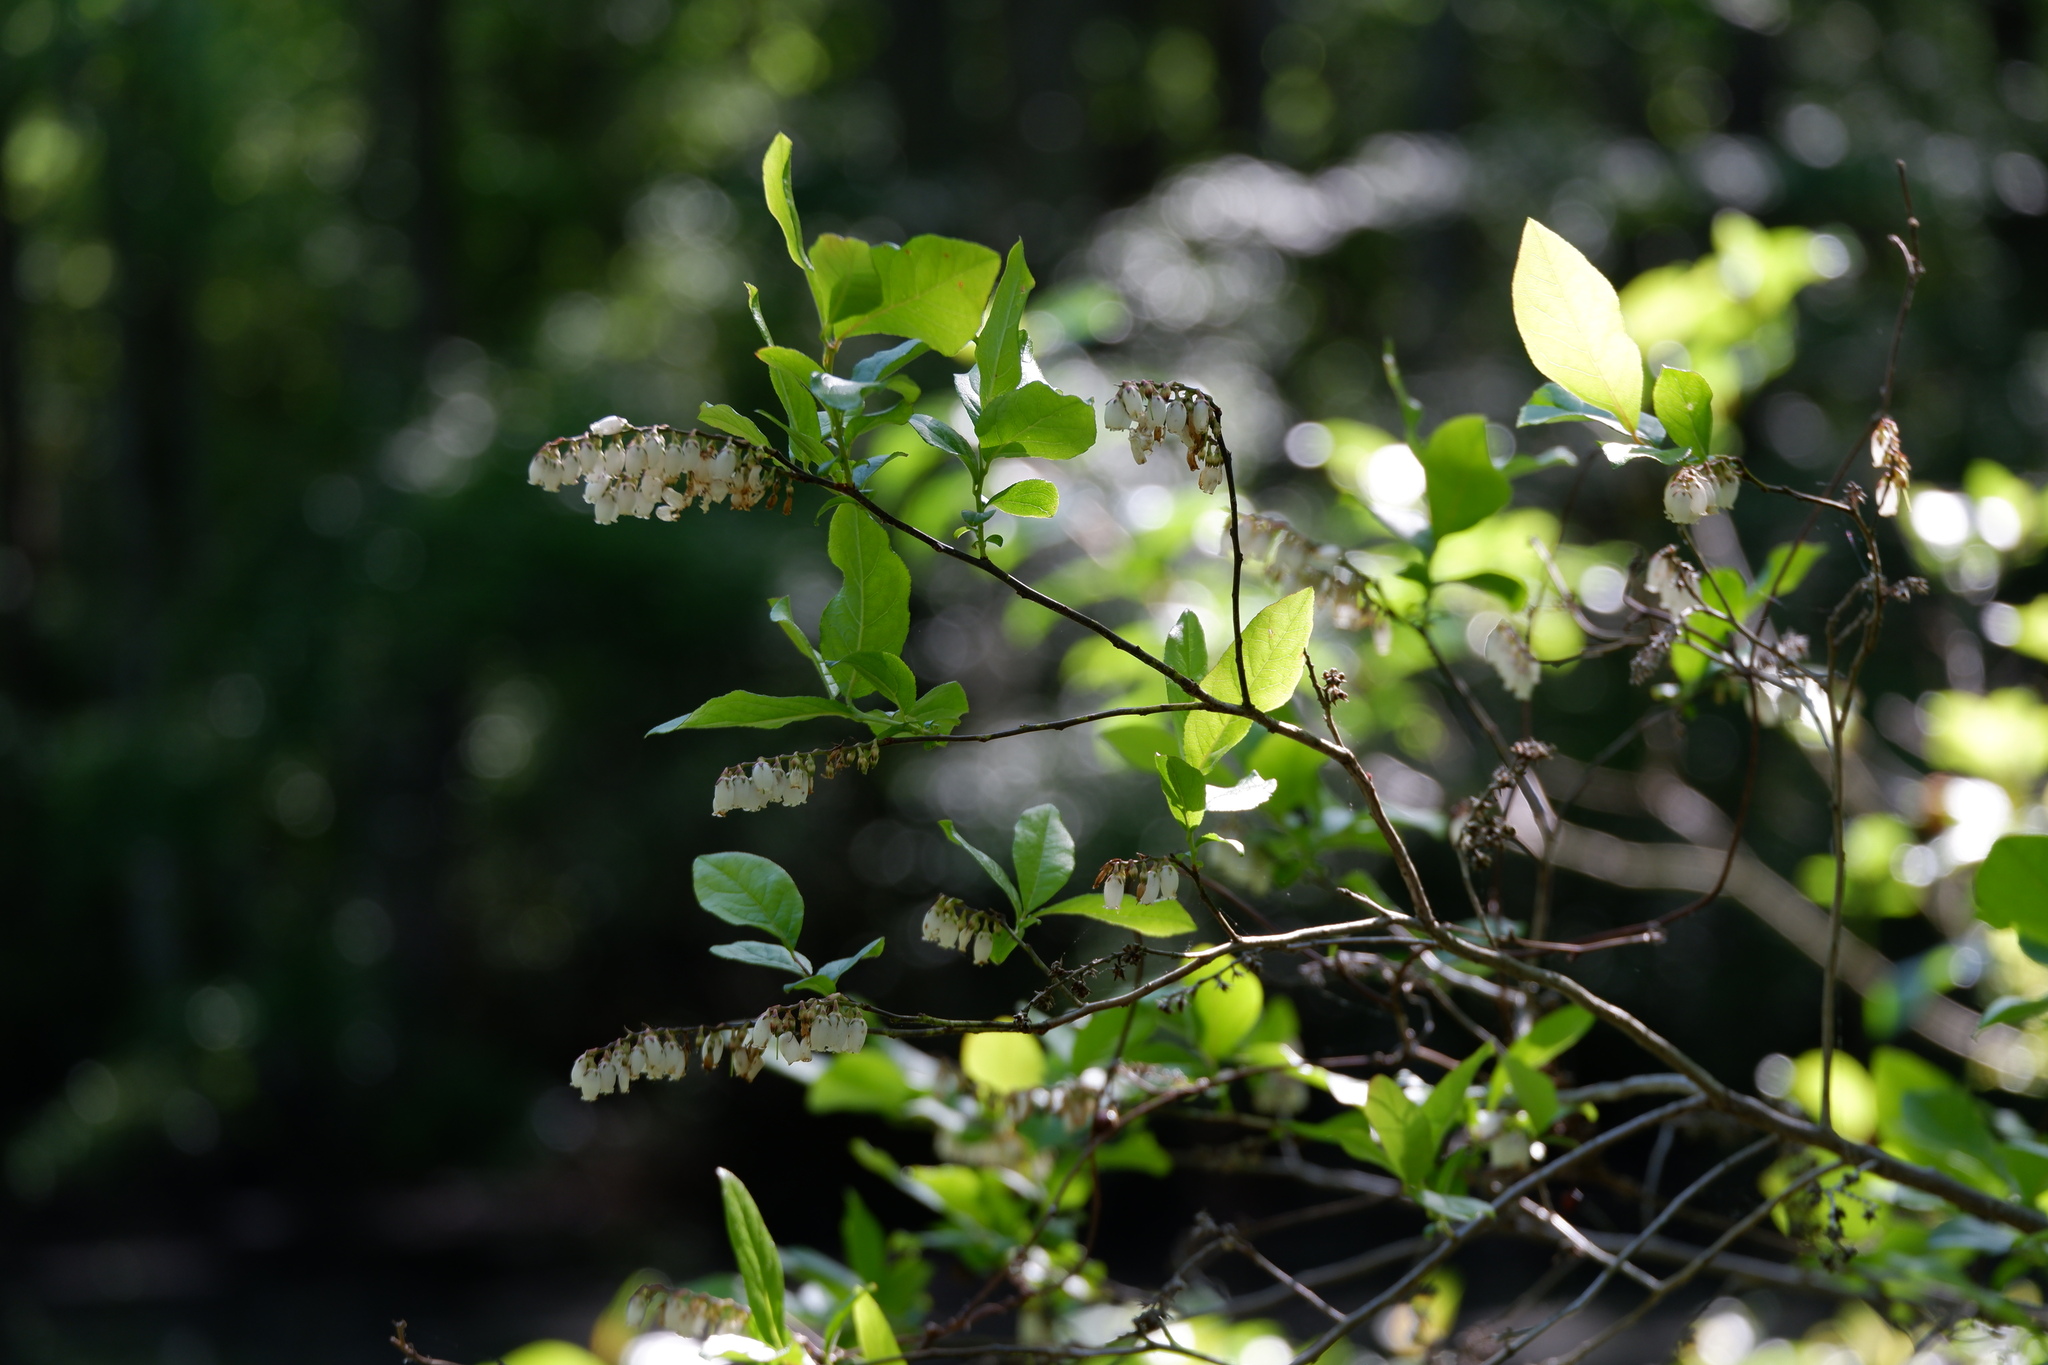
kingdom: Plantae
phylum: Tracheophyta
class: Magnoliopsida
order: Ericales
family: Ericaceae
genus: Eubotrys
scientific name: Eubotrys racemosa
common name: Fetterbush
